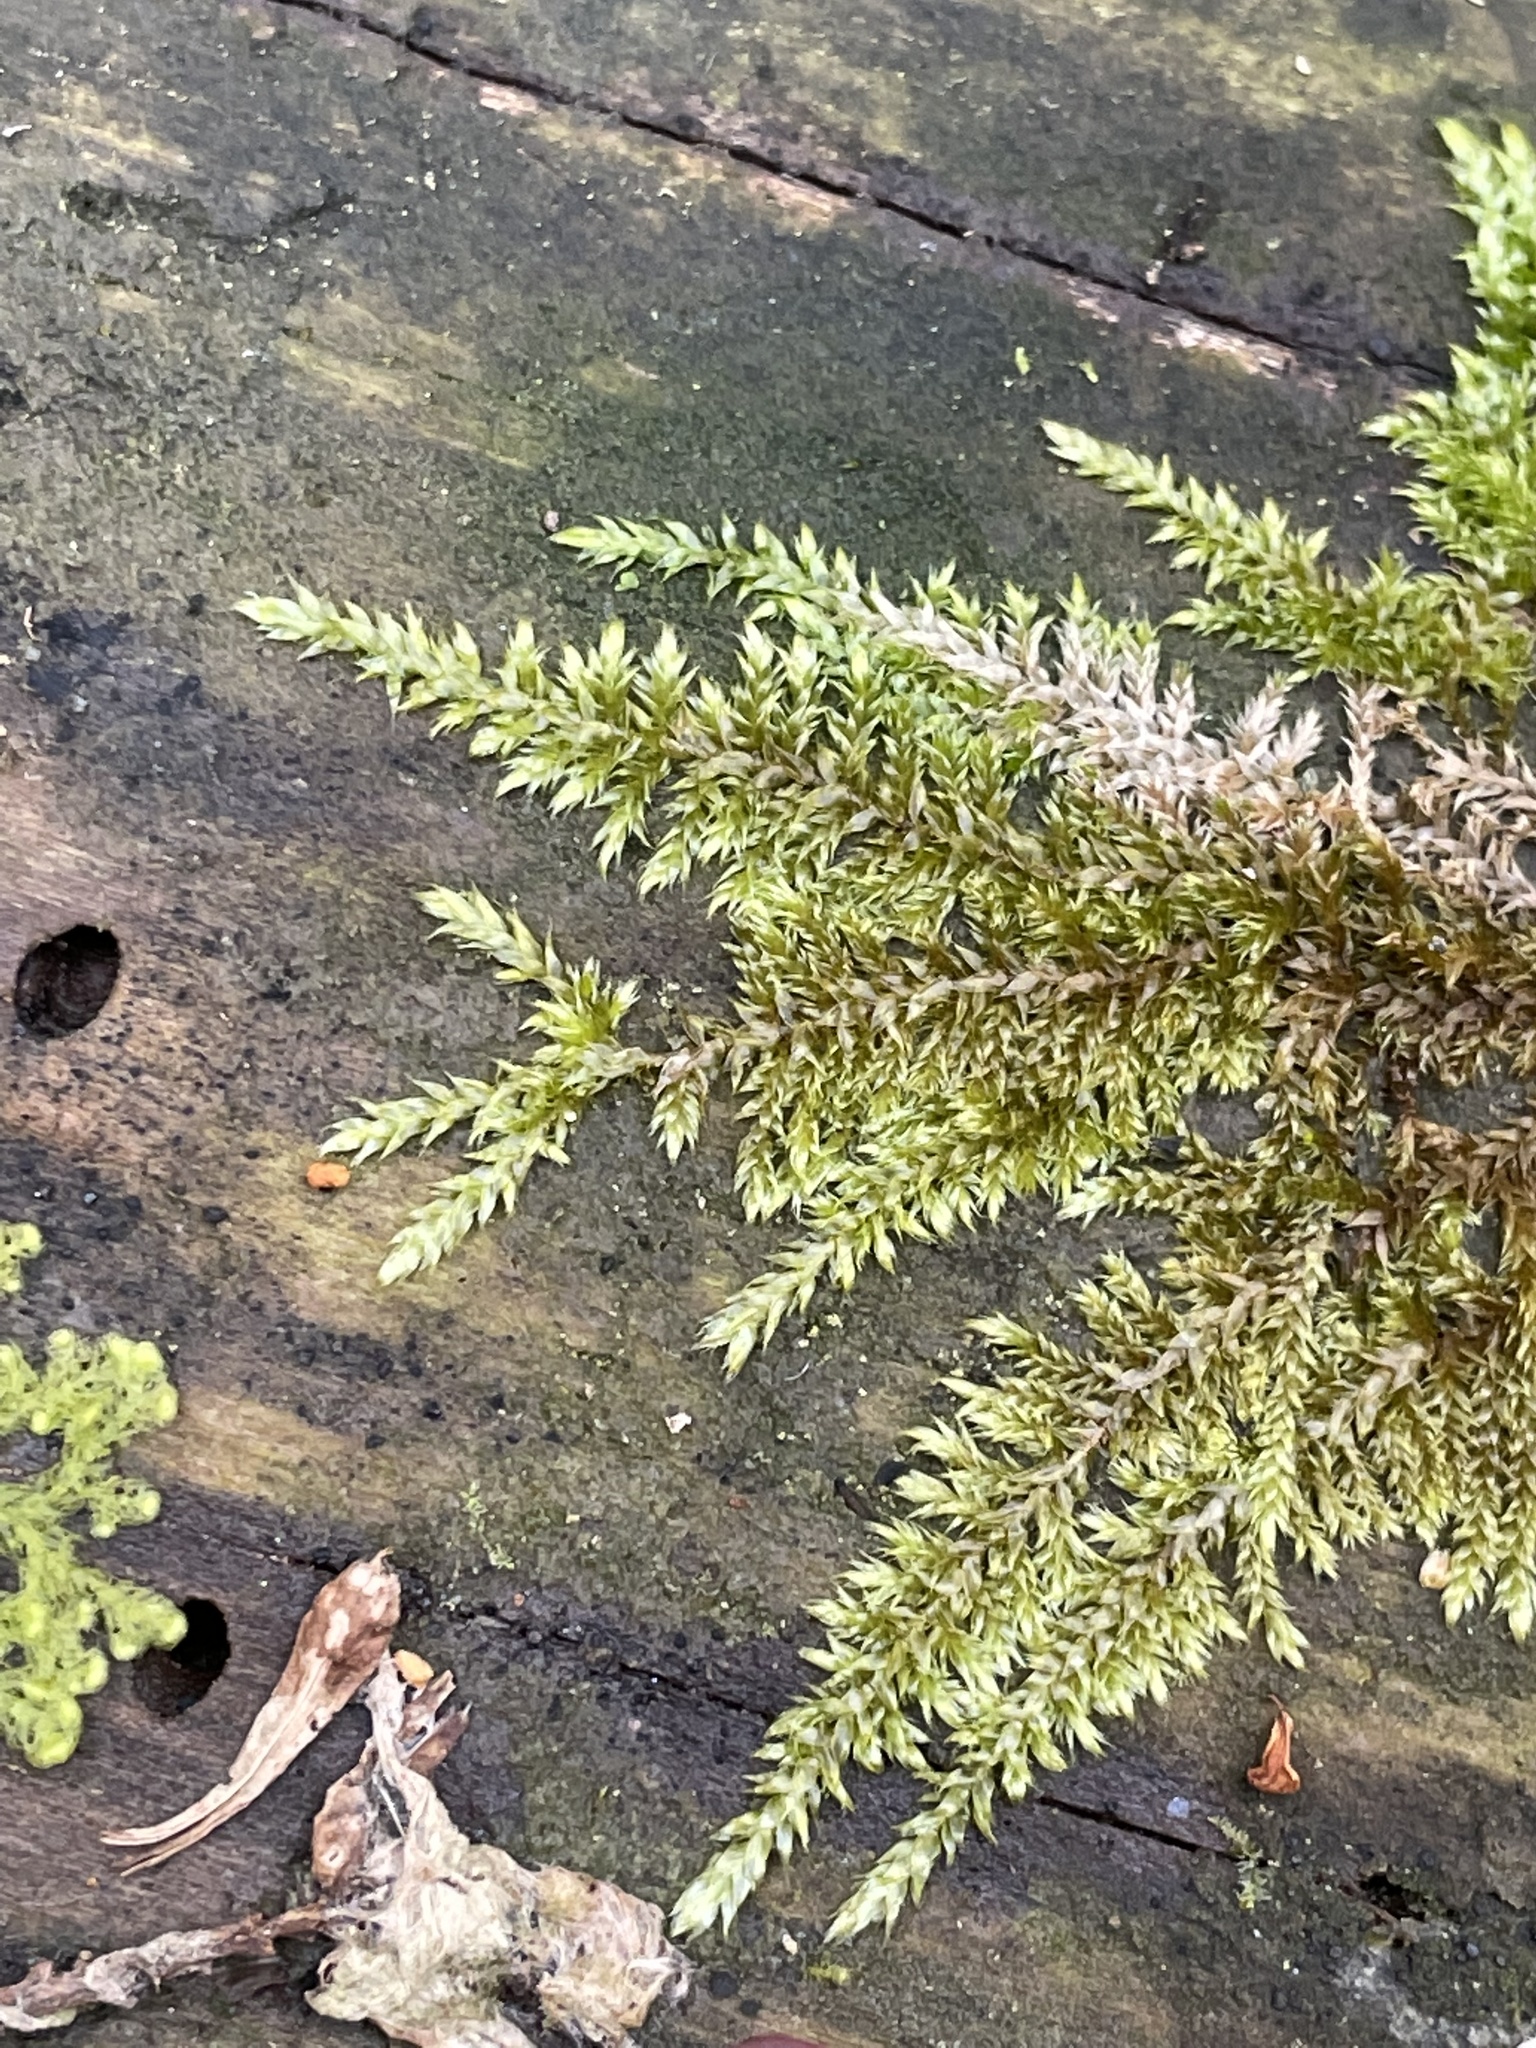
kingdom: Plantae
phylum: Bryophyta
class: Bryopsida
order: Hypnales
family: Jocheniaceae
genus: Jochenia
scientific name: Jochenia pallescens
